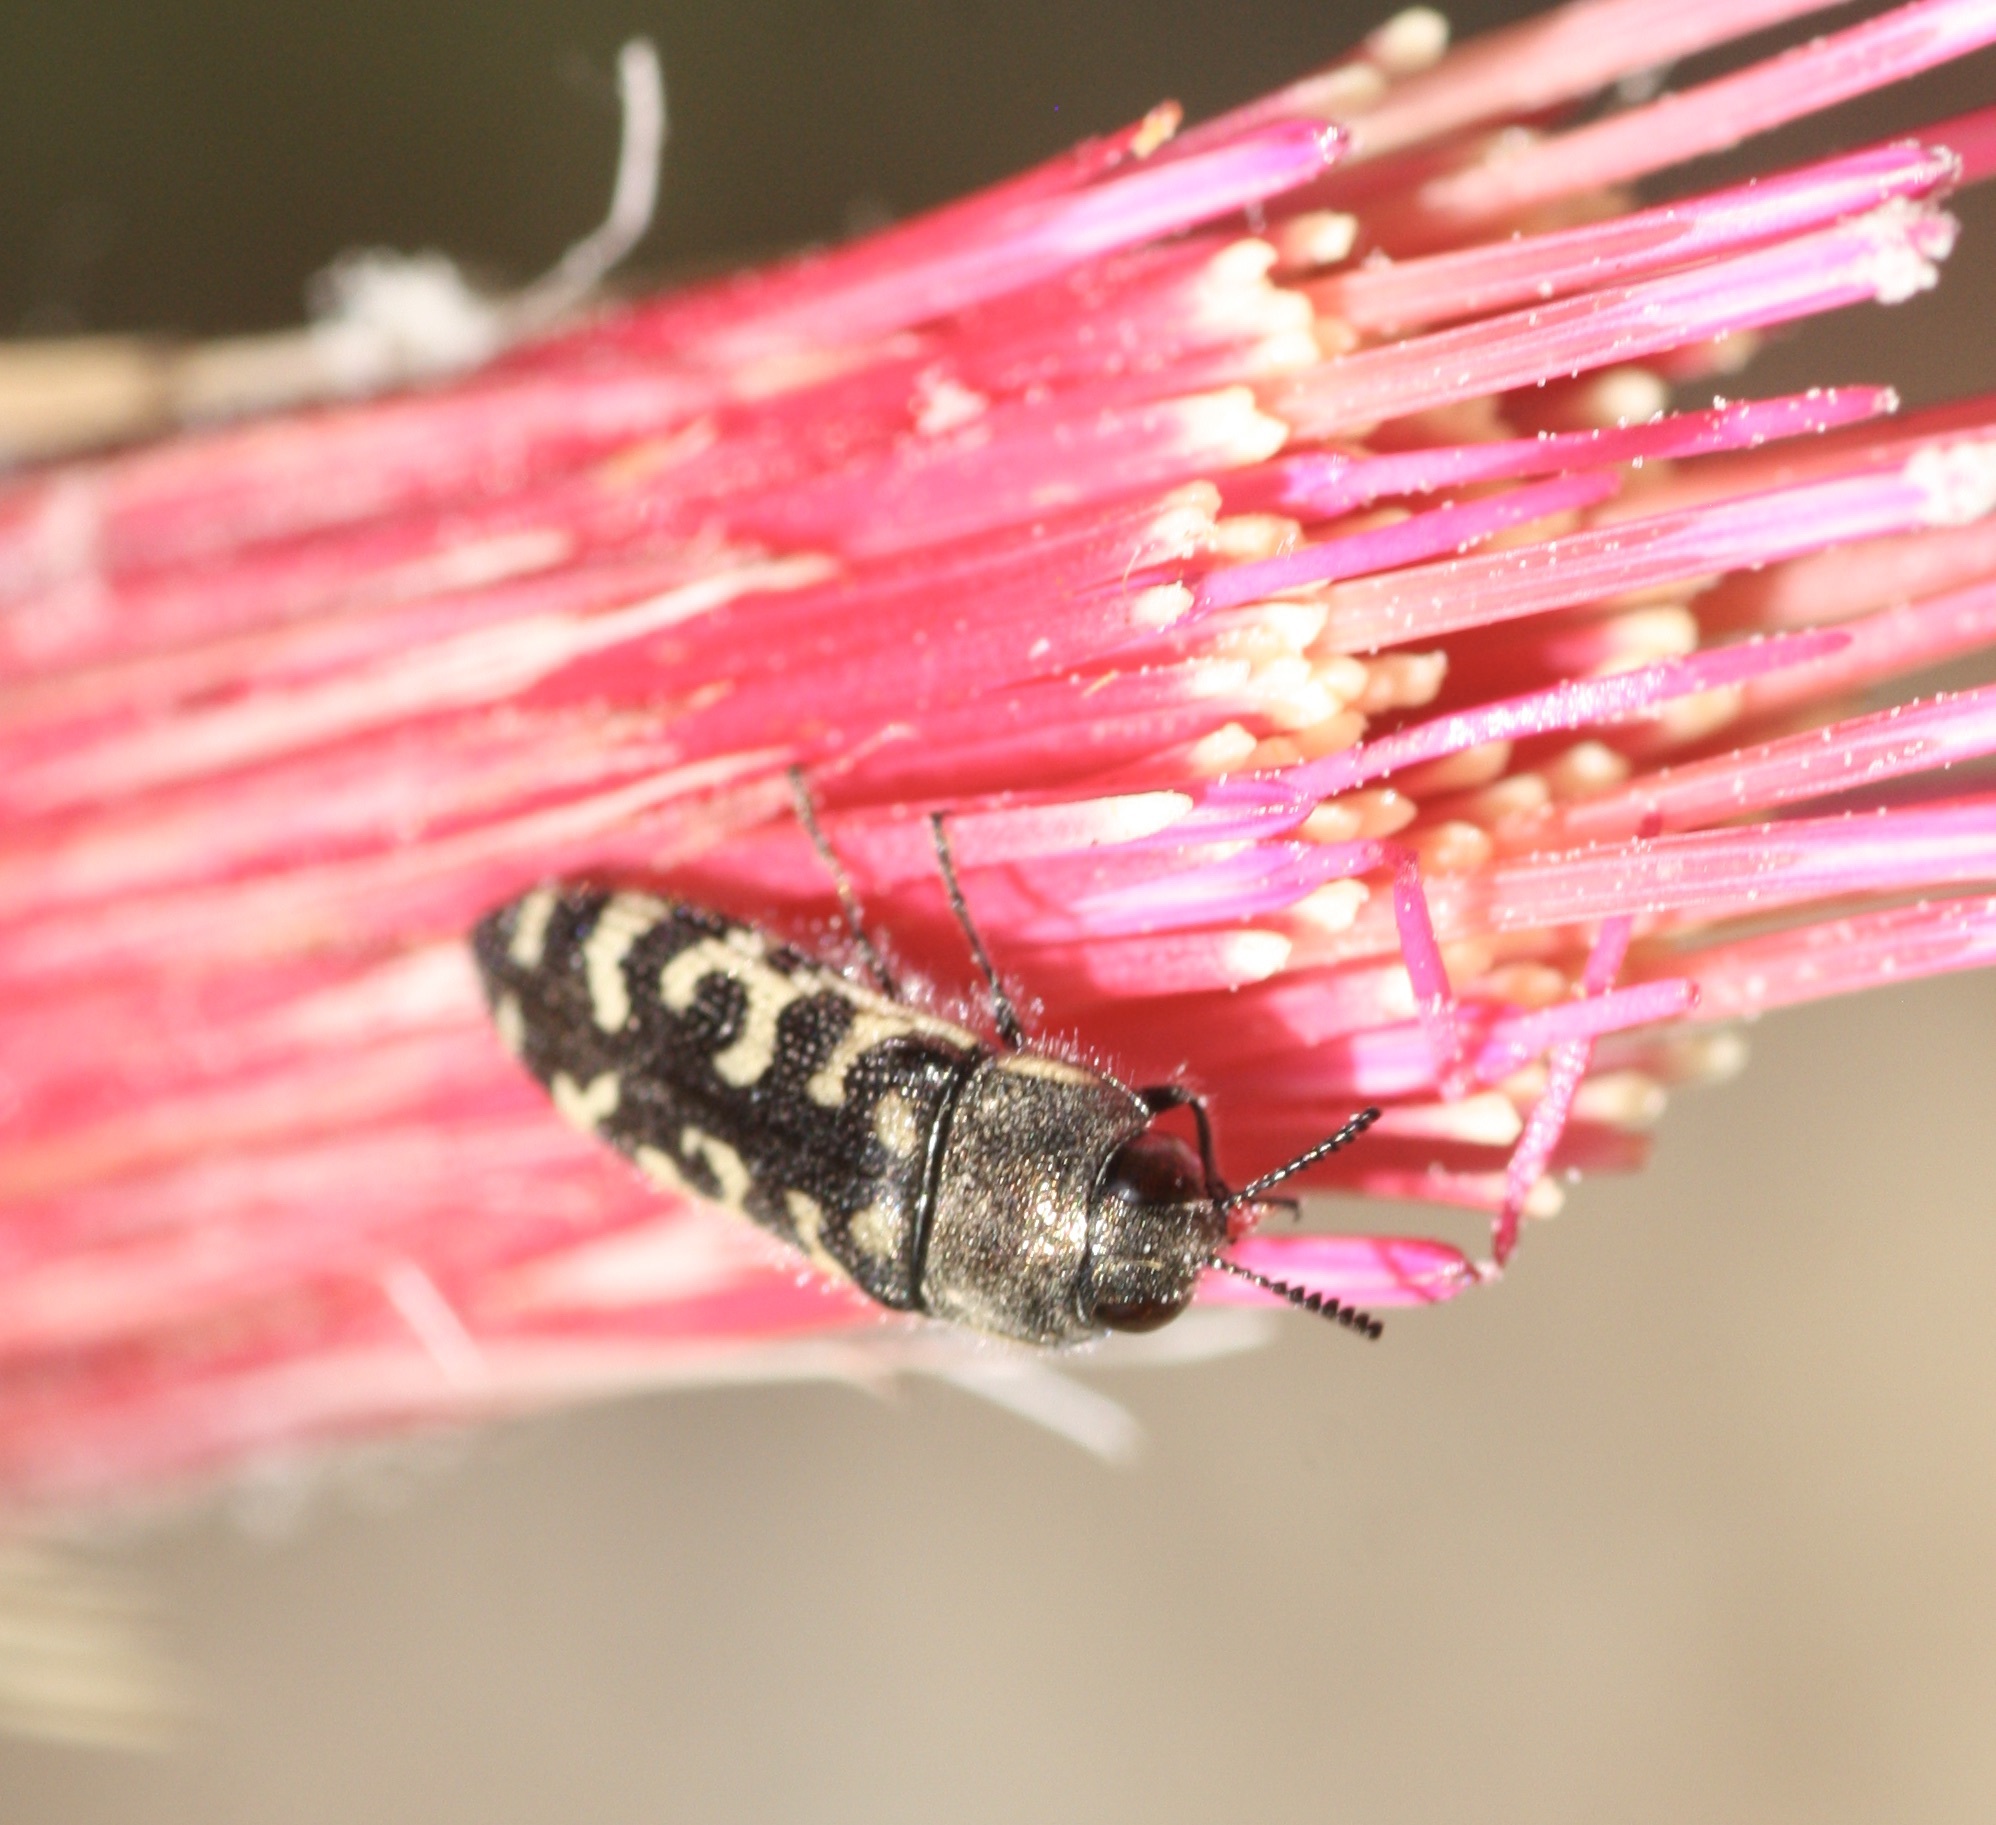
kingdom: Animalia
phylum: Arthropoda
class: Insecta
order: Coleoptera
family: Buprestidae
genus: Acmaeodera
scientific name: Acmaeodera solitaria
